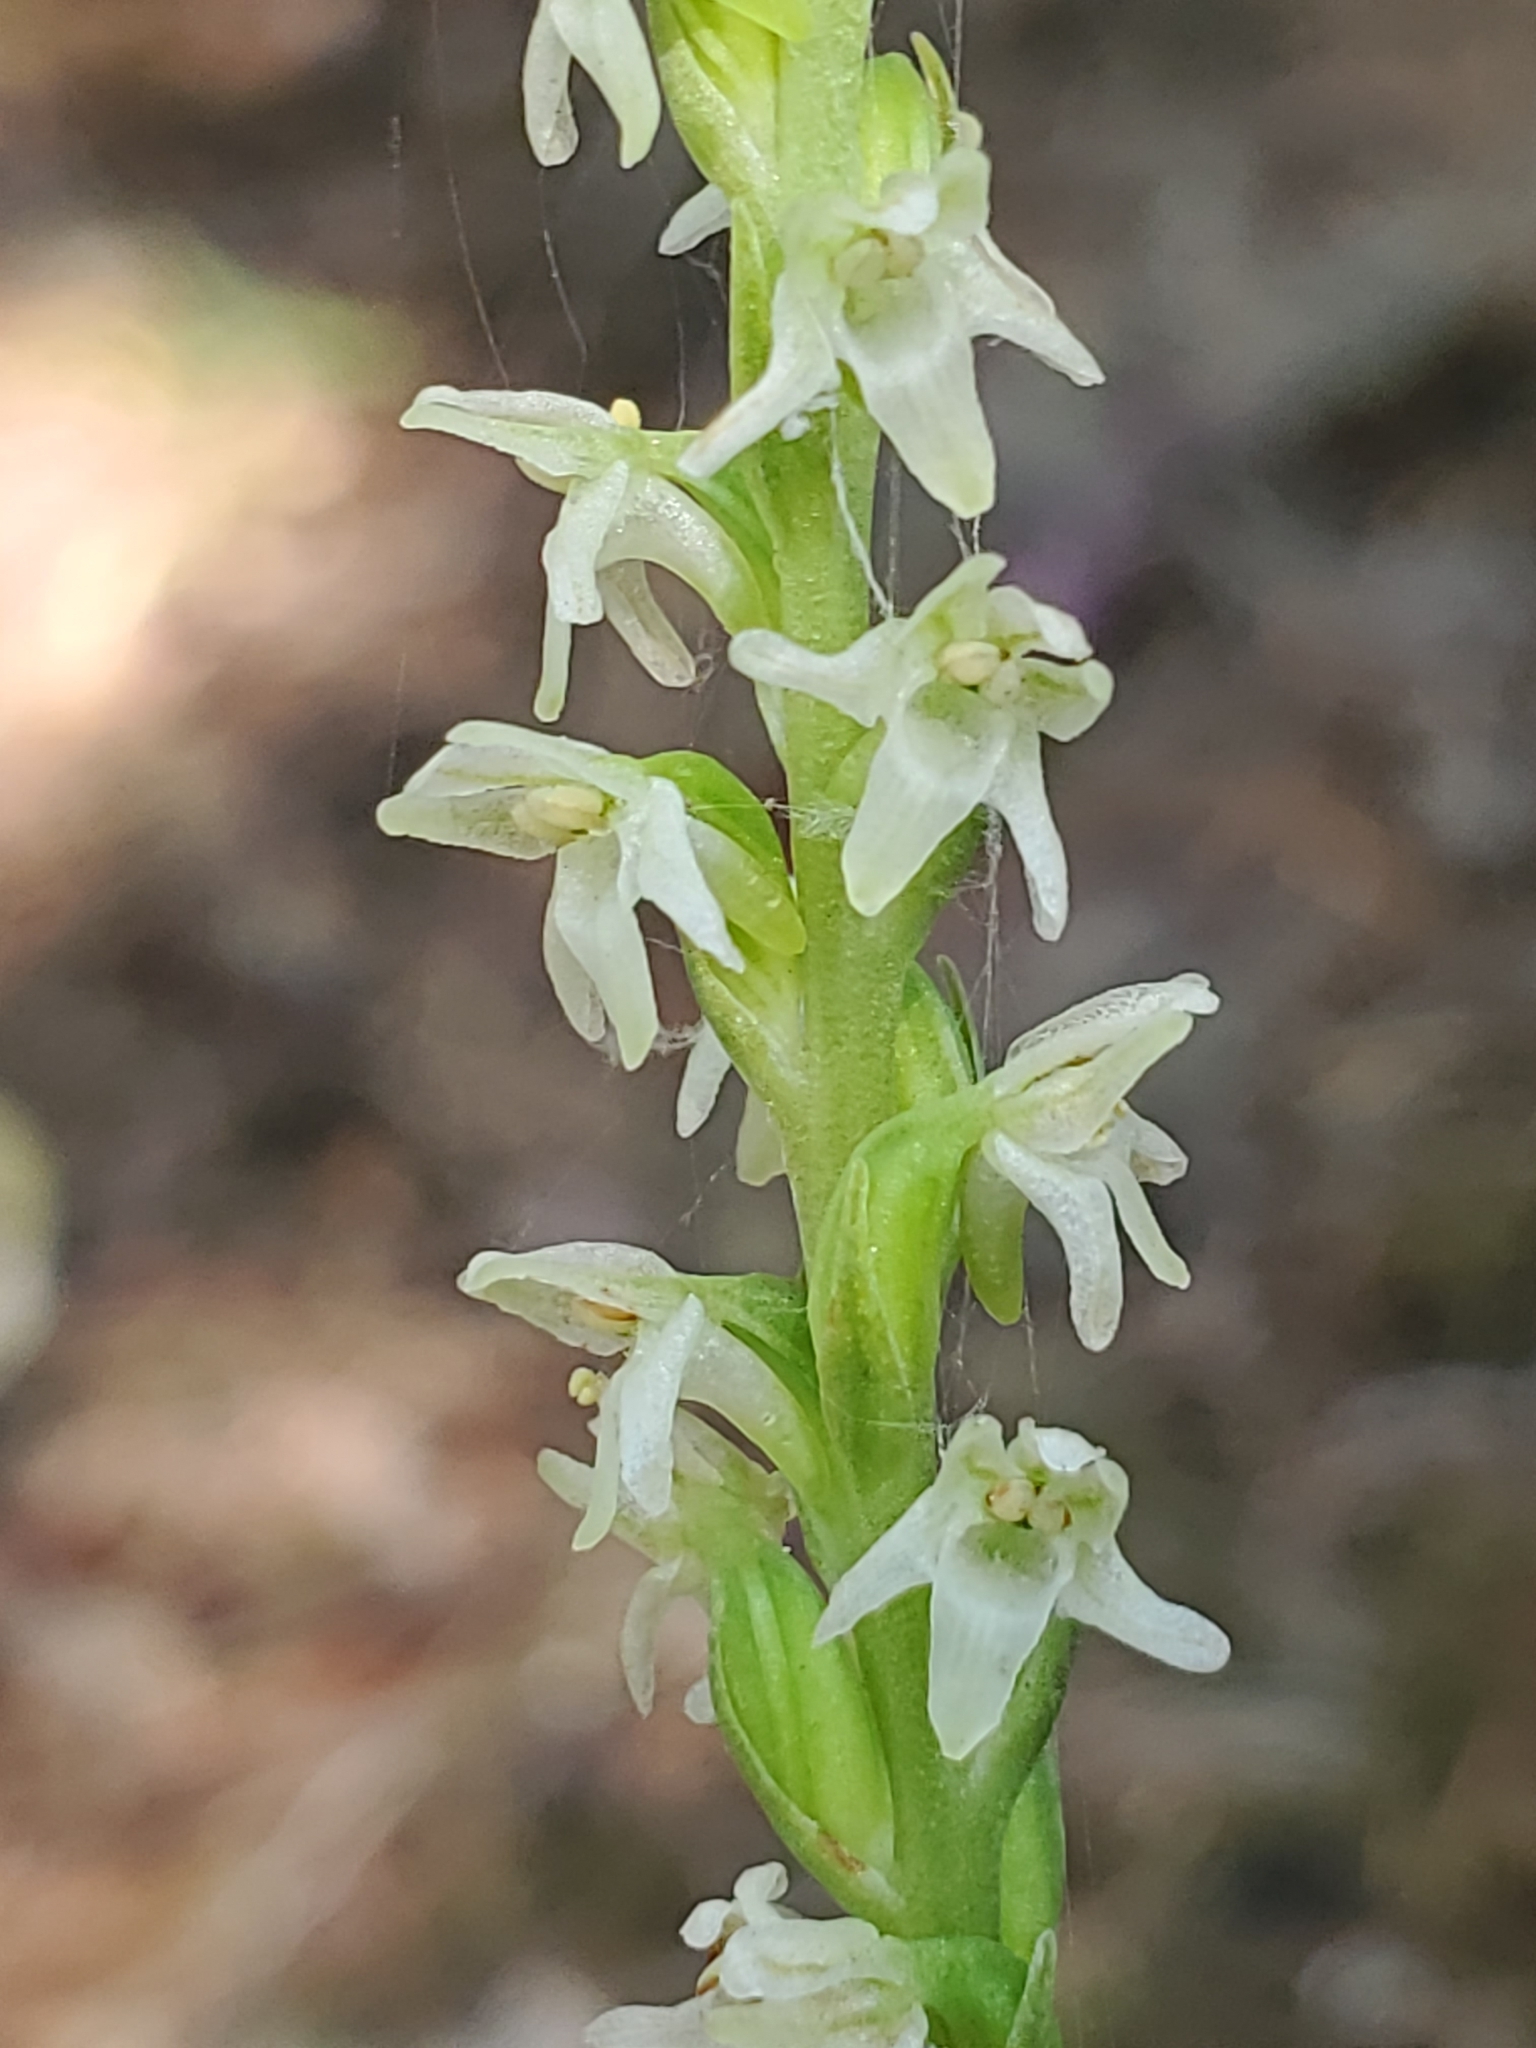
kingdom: Plantae
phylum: Tracheophyta
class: Liliopsida
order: Asparagales
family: Orchidaceae
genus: Platanthera
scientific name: Platanthera ephemerantha
